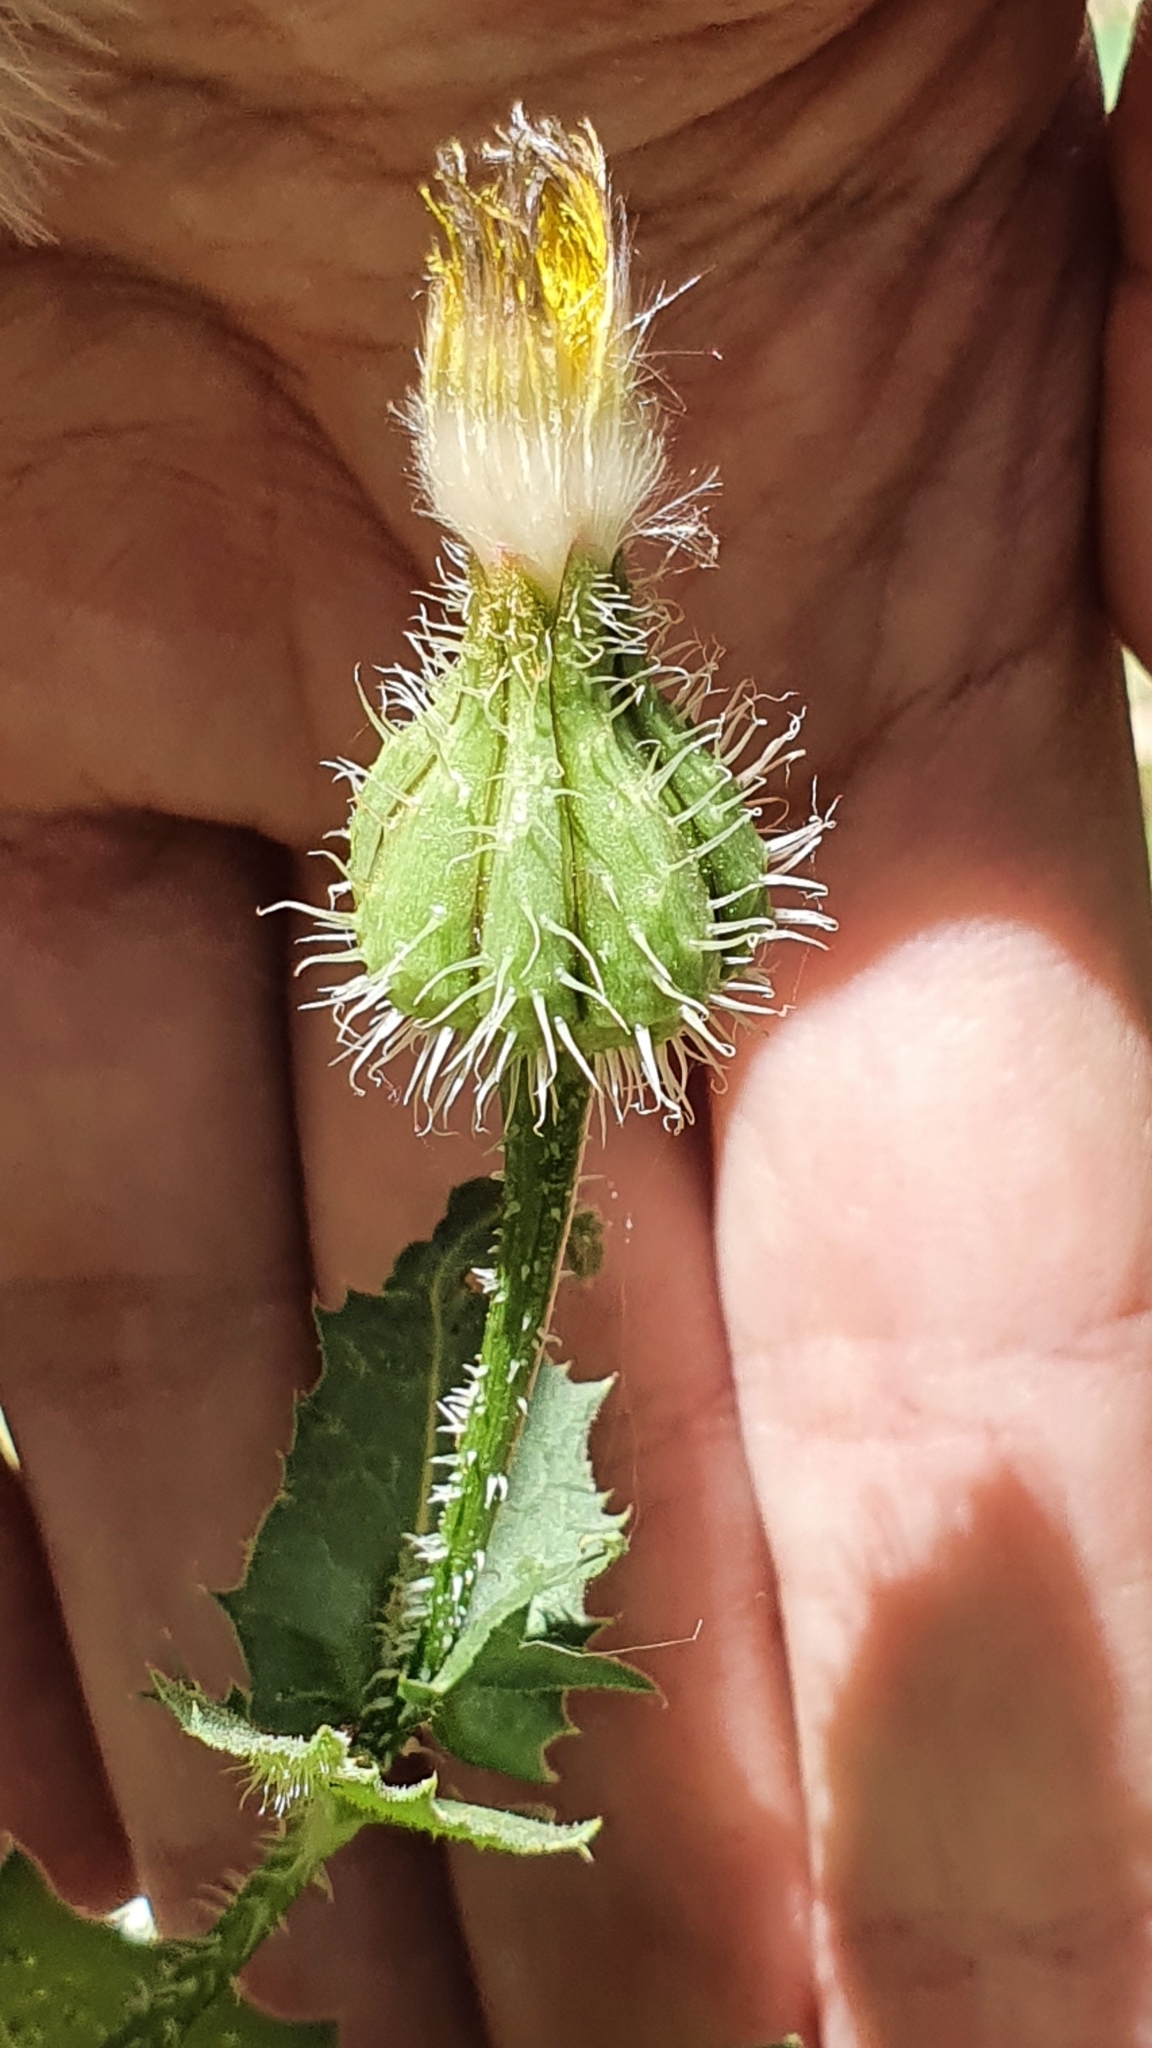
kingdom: Plantae
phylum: Tracheophyta
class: Magnoliopsida
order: Asterales
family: Asteraceae
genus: Urospermum
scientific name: Urospermum picroides
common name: False hawkbit
